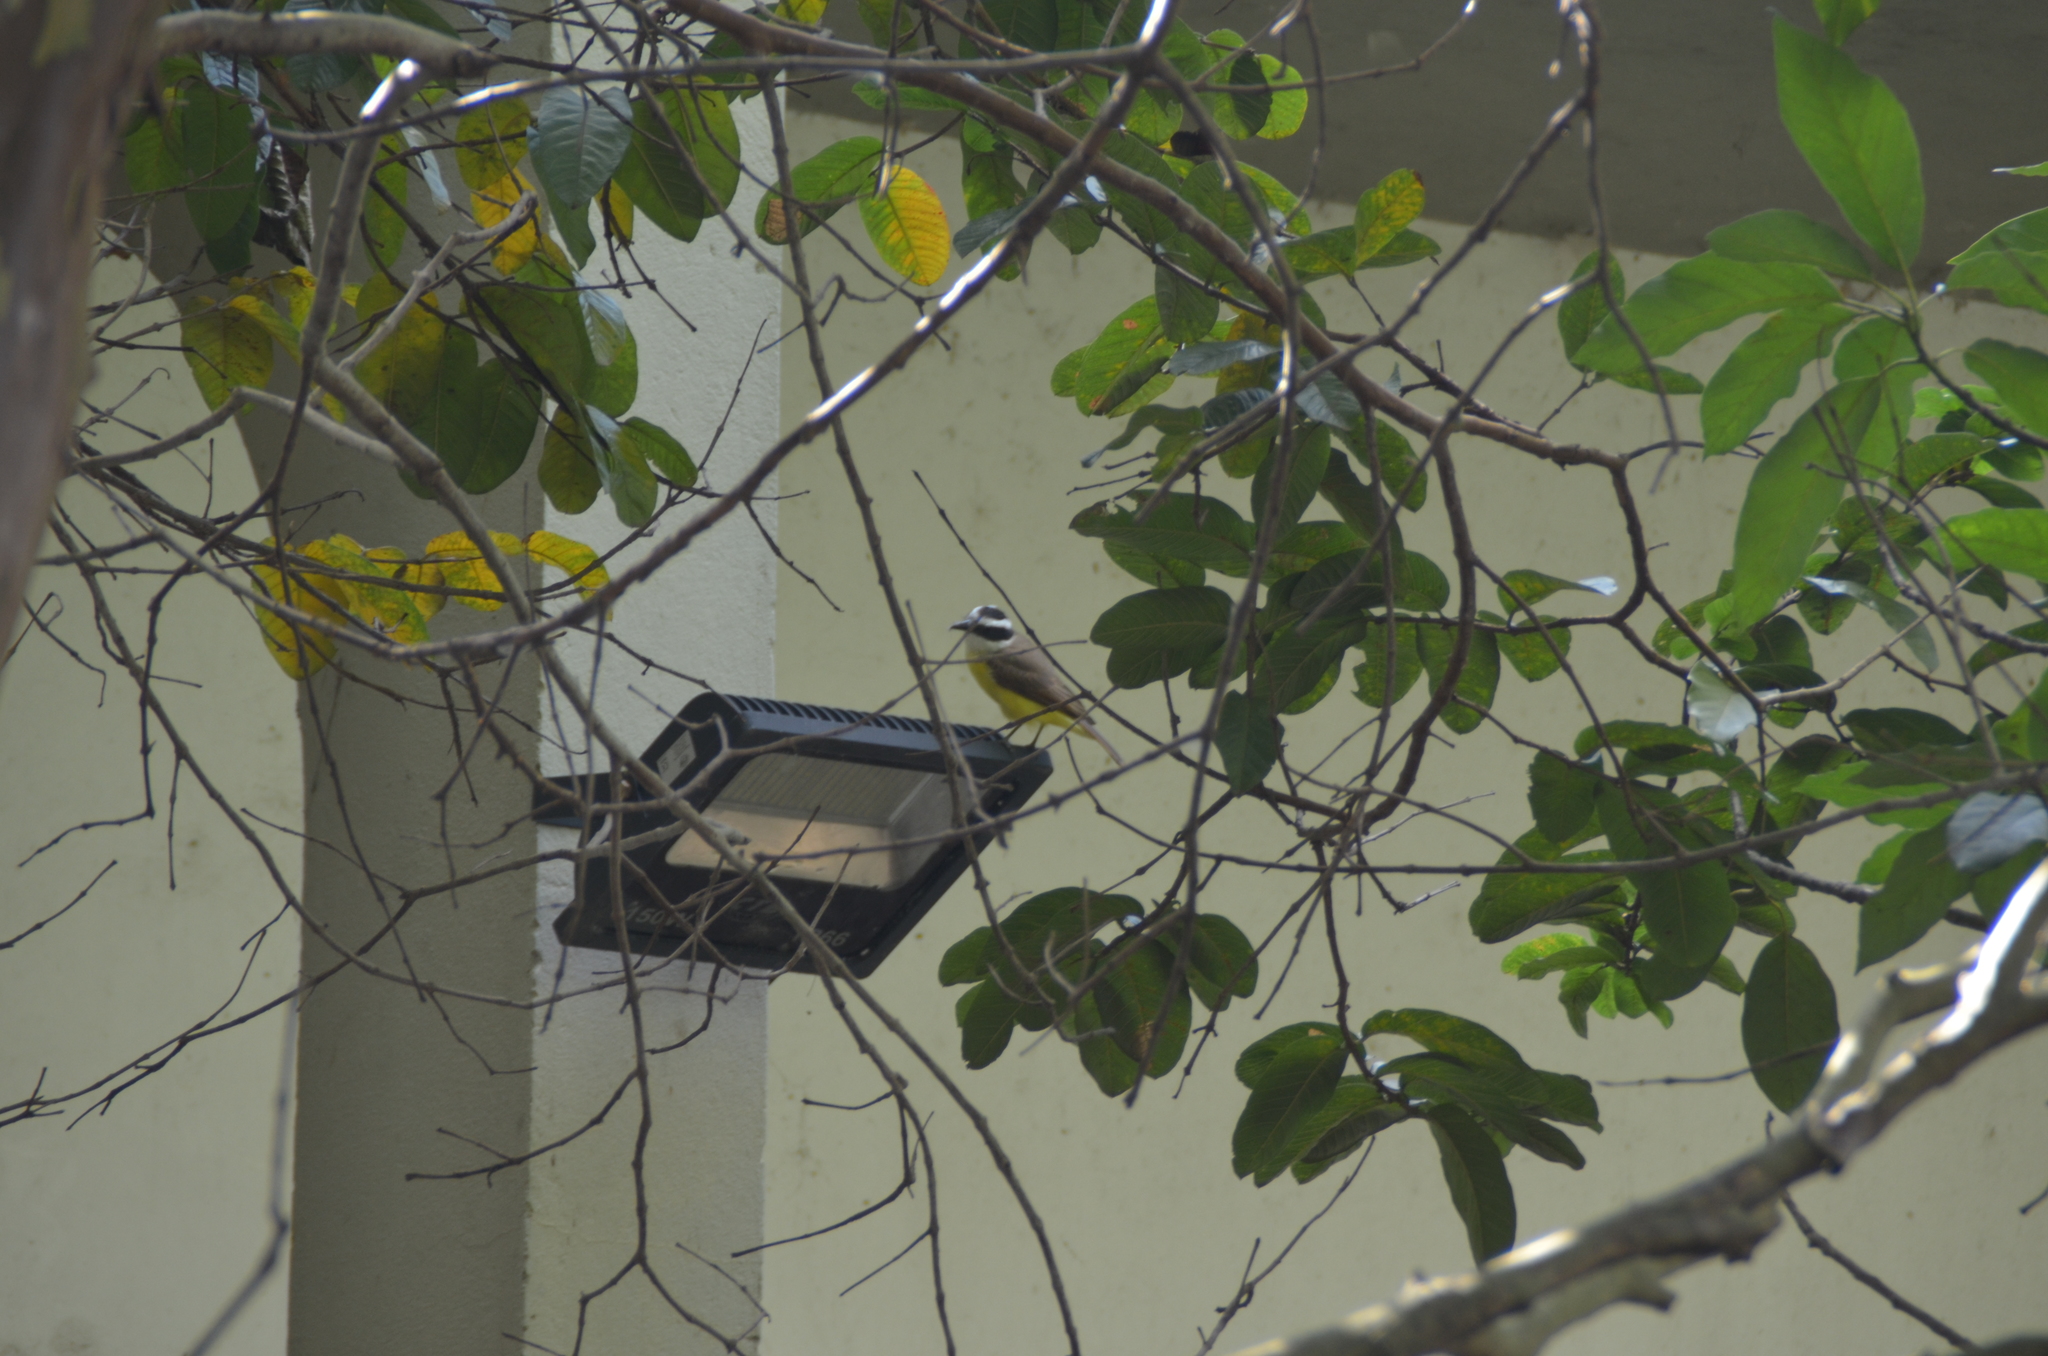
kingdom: Animalia
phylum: Chordata
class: Aves
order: Passeriformes
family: Tyrannidae
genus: Pitangus
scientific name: Pitangus sulphuratus
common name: Great kiskadee
